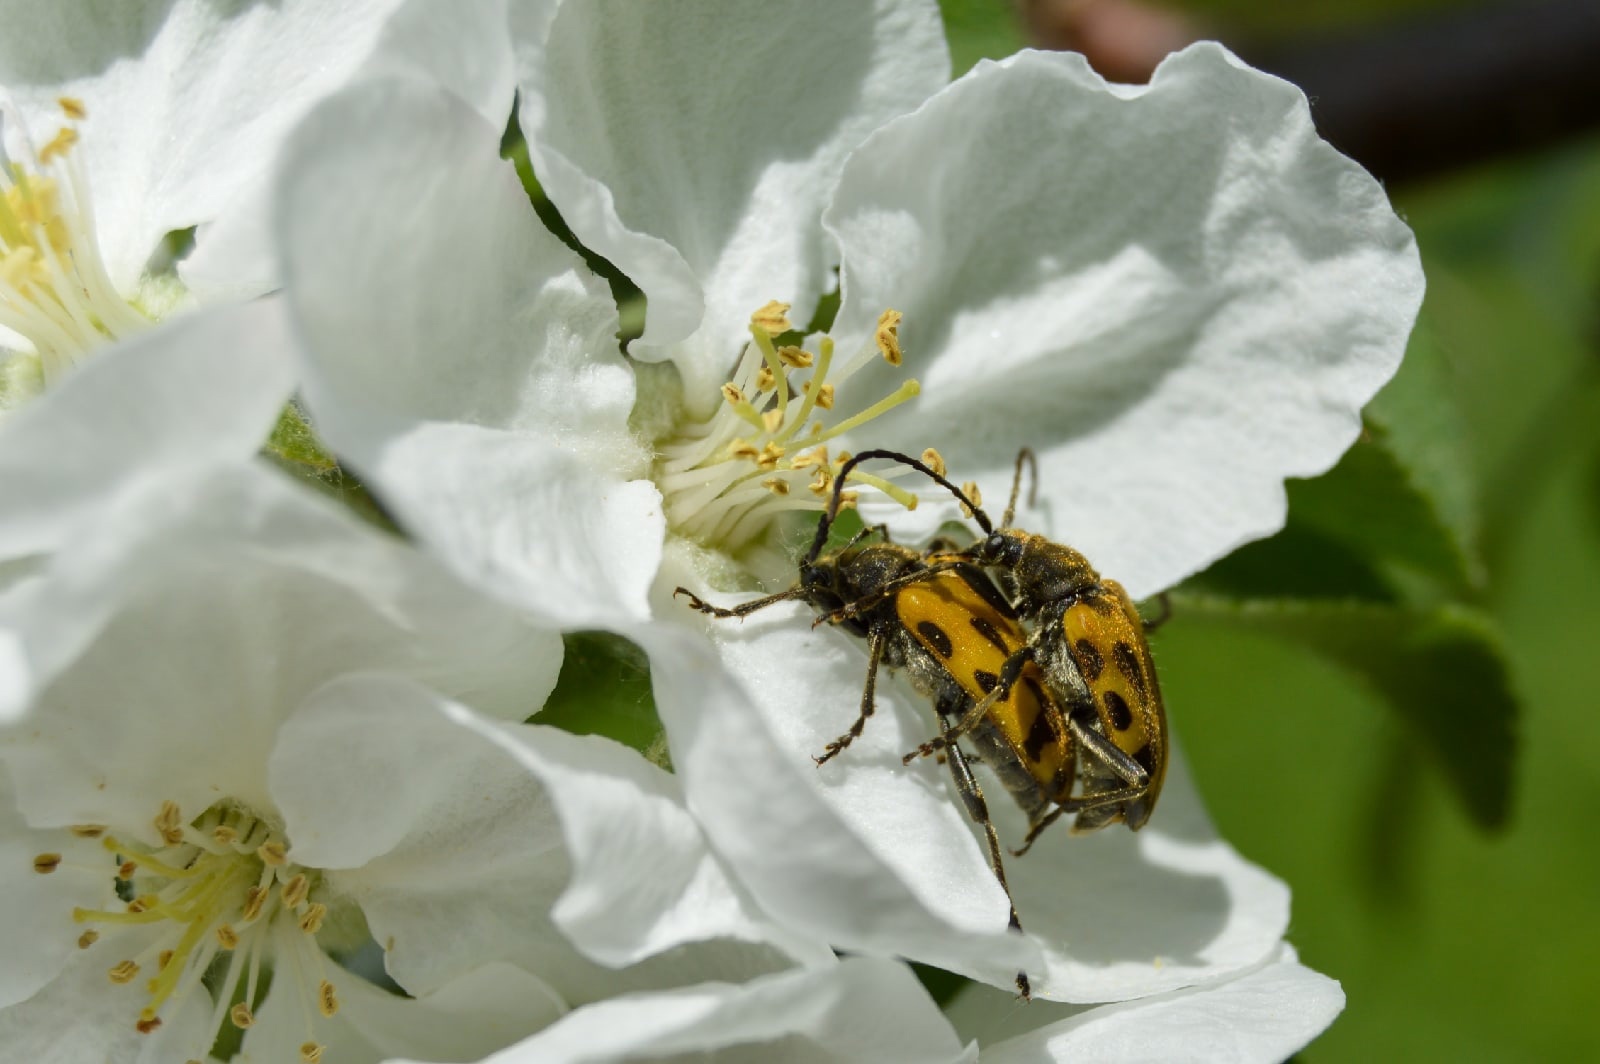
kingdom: Animalia
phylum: Arthropoda
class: Insecta
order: Coleoptera
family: Cerambycidae
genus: Brachyta
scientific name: Brachyta interrogationis
